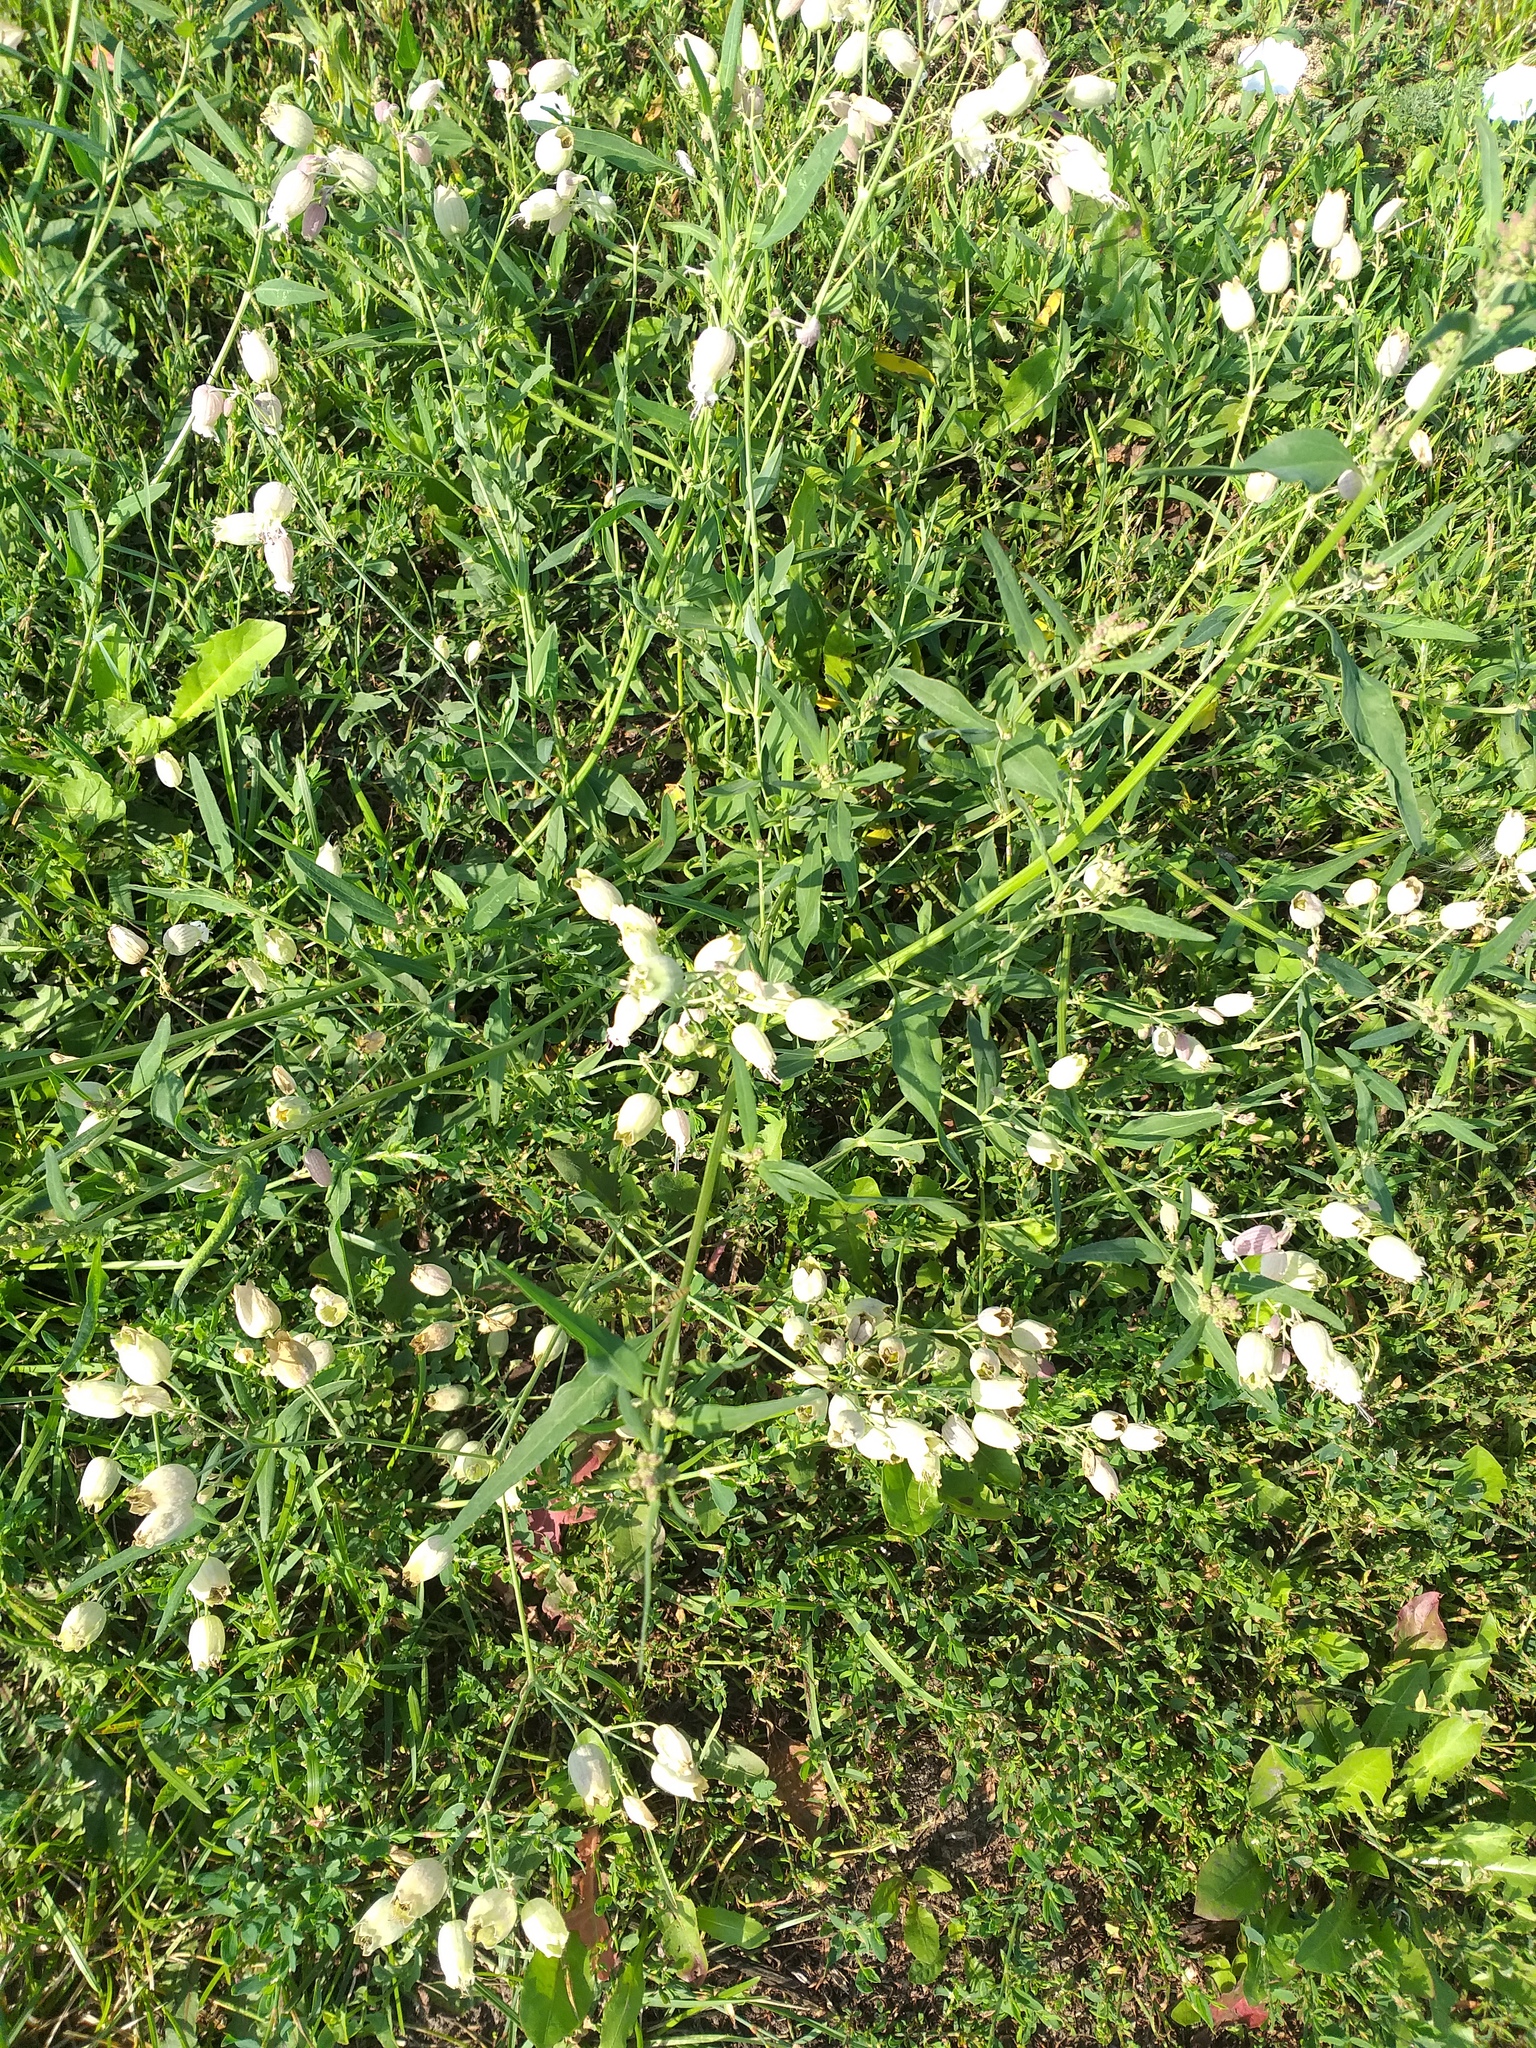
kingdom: Plantae
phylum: Tracheophyta
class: Magnoliopsida
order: Caryophyllales
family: Caryophyllaceae
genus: Silene
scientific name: Silene vulgaris
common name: Bladder campion
